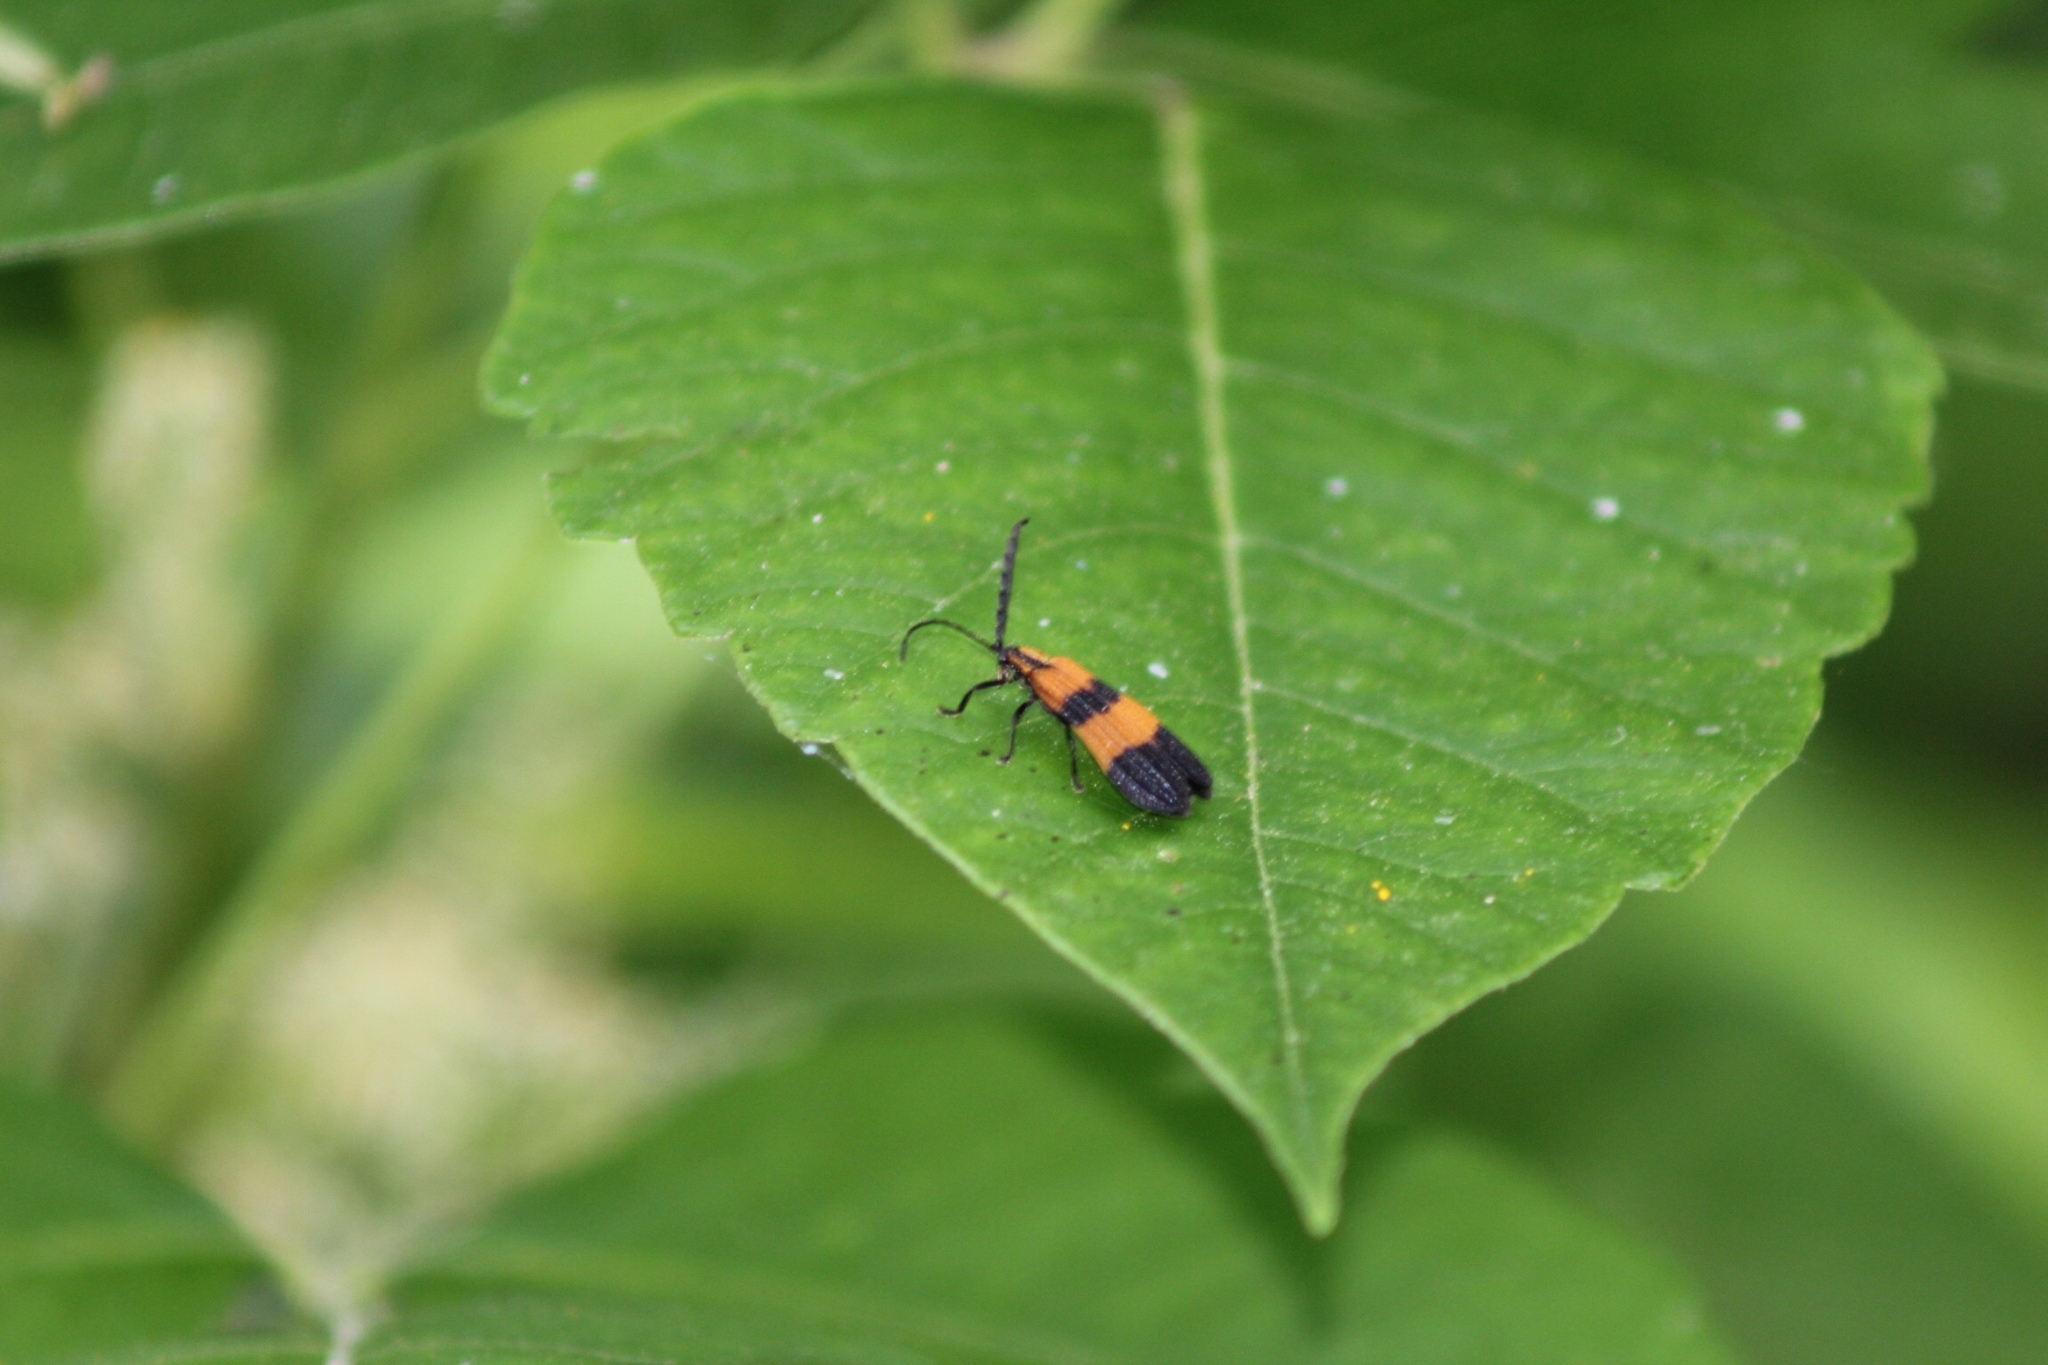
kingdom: Animalia
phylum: Arthropoda
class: Insecta
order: Coleoptera
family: Lycidae
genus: Calopteron
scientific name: Calopteron reticulatum
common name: Banded net-winged beetle
